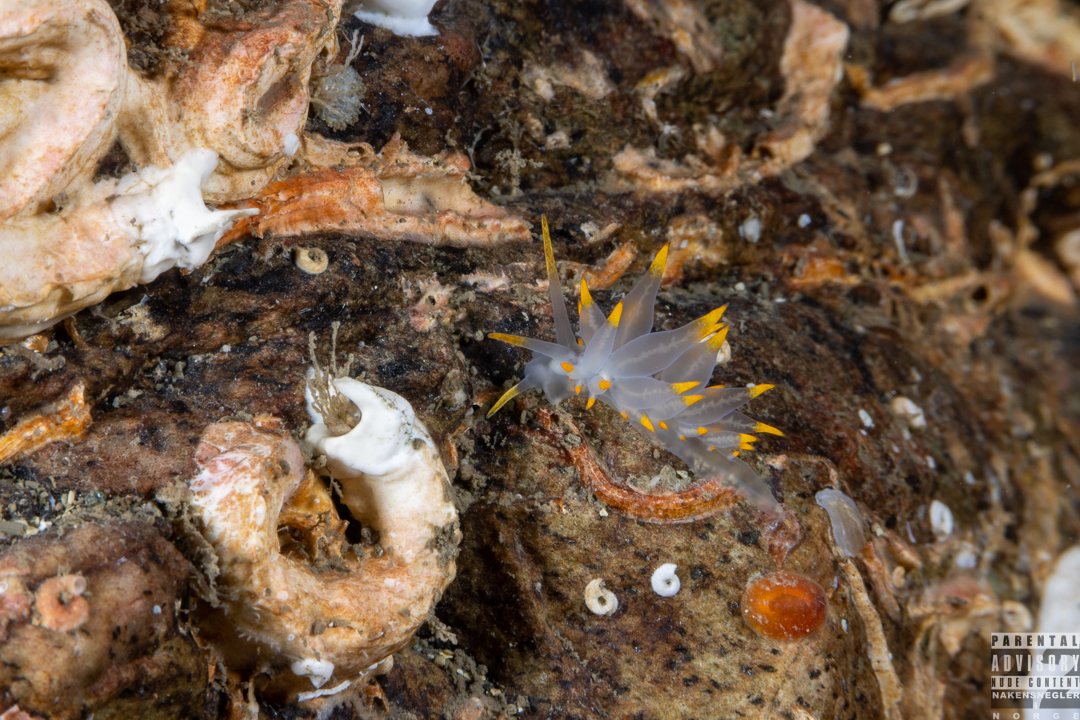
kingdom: Animalia
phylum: Mollusca
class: Gastropoda
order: Nudibranchia
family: Eubranchidae
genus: Amphorina
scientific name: Amphorina farrani
